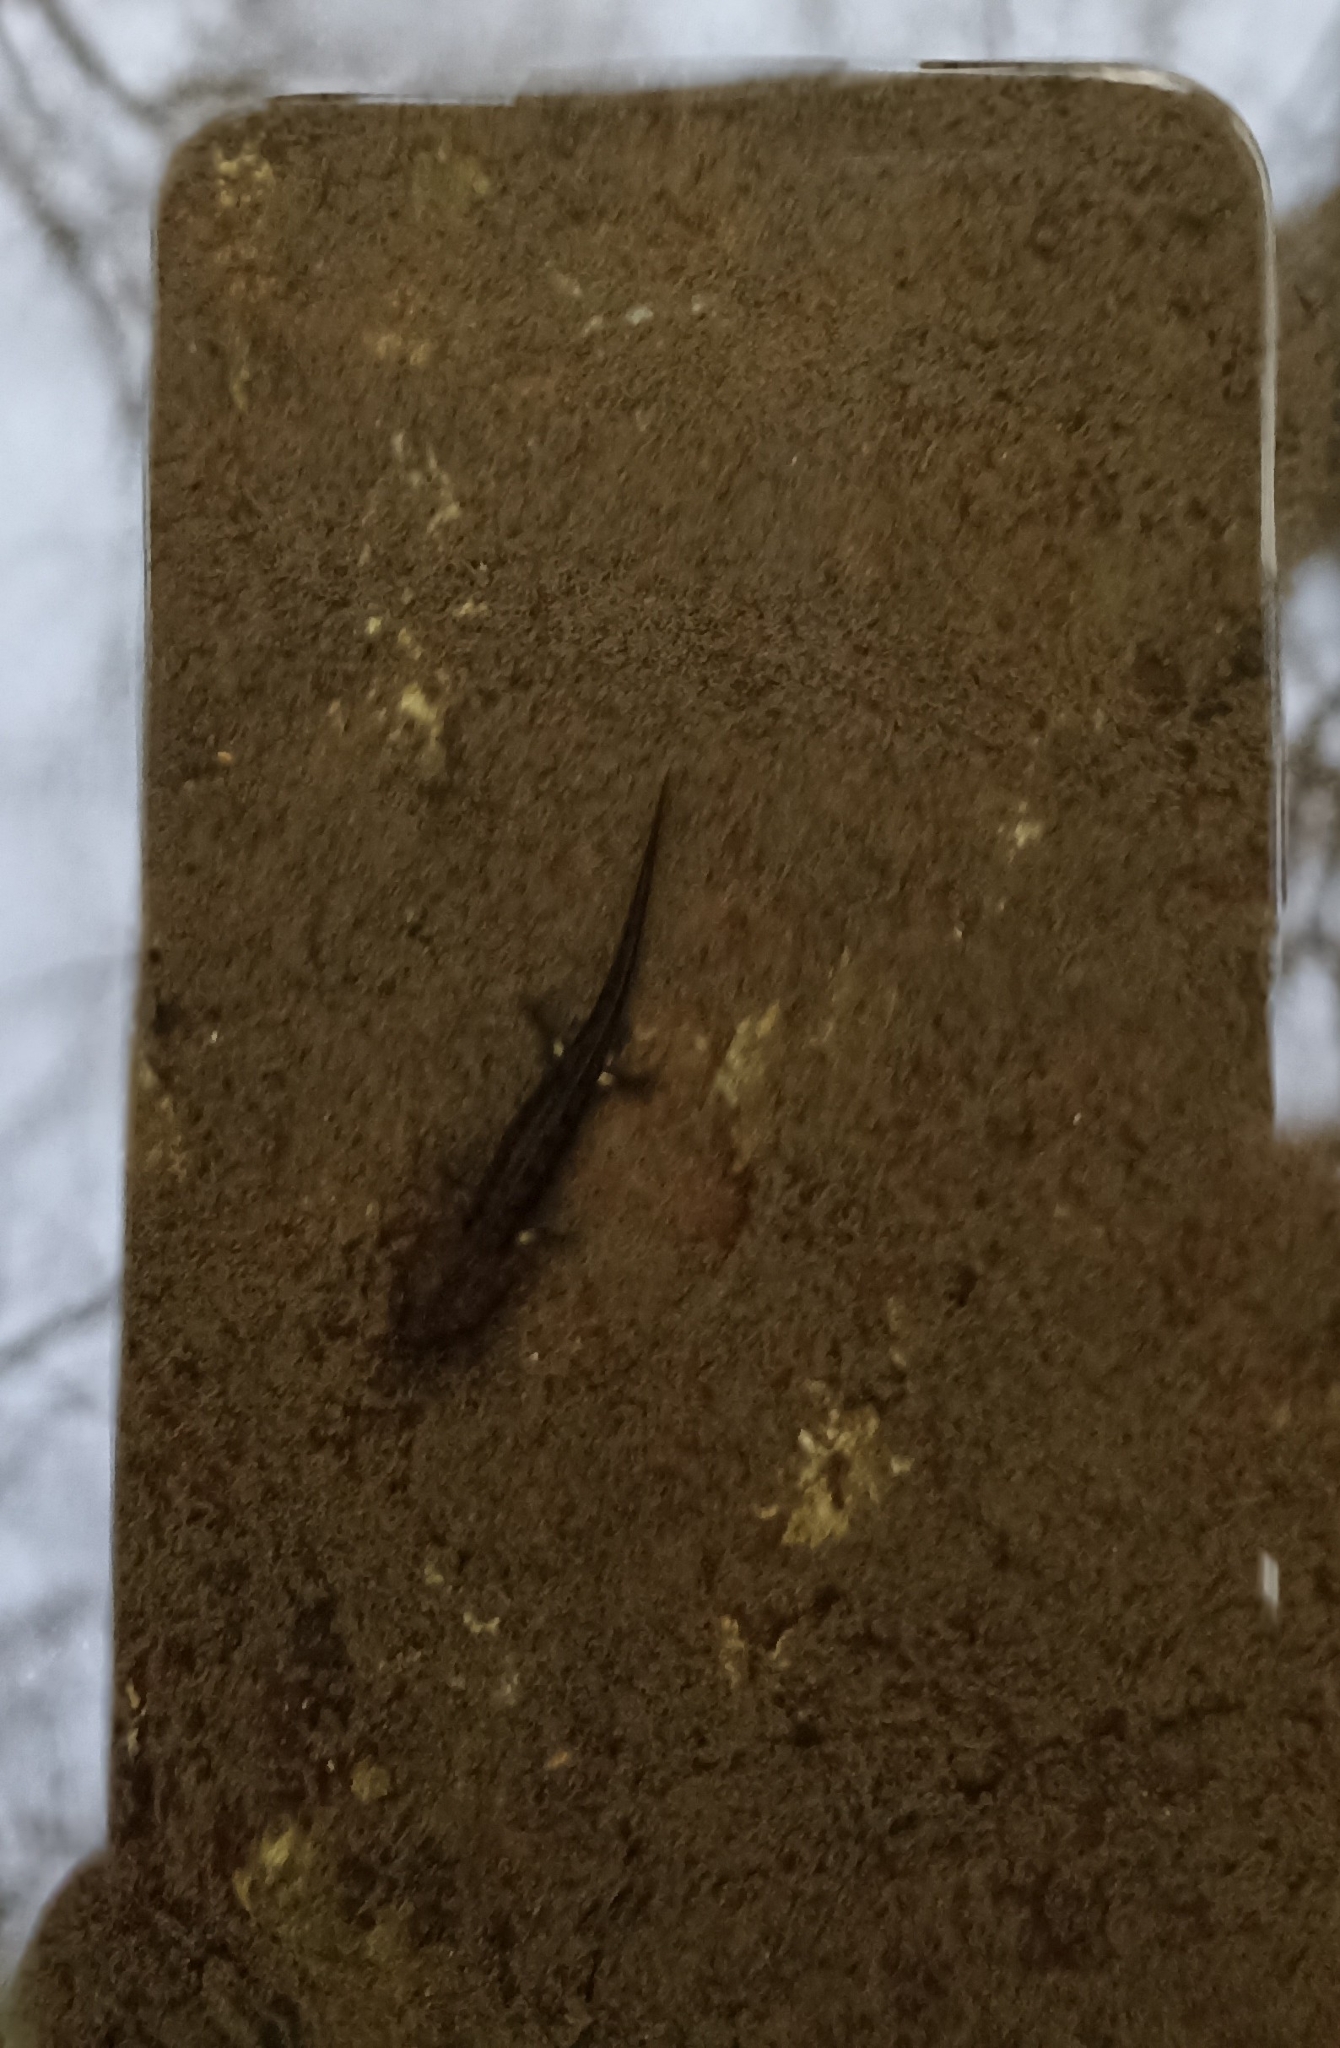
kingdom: Animalia
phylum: Chordata
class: Amphibia
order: Caudata
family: Salamandridae
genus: Salamandra
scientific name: Salamandra salamandra
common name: Fire salamander
